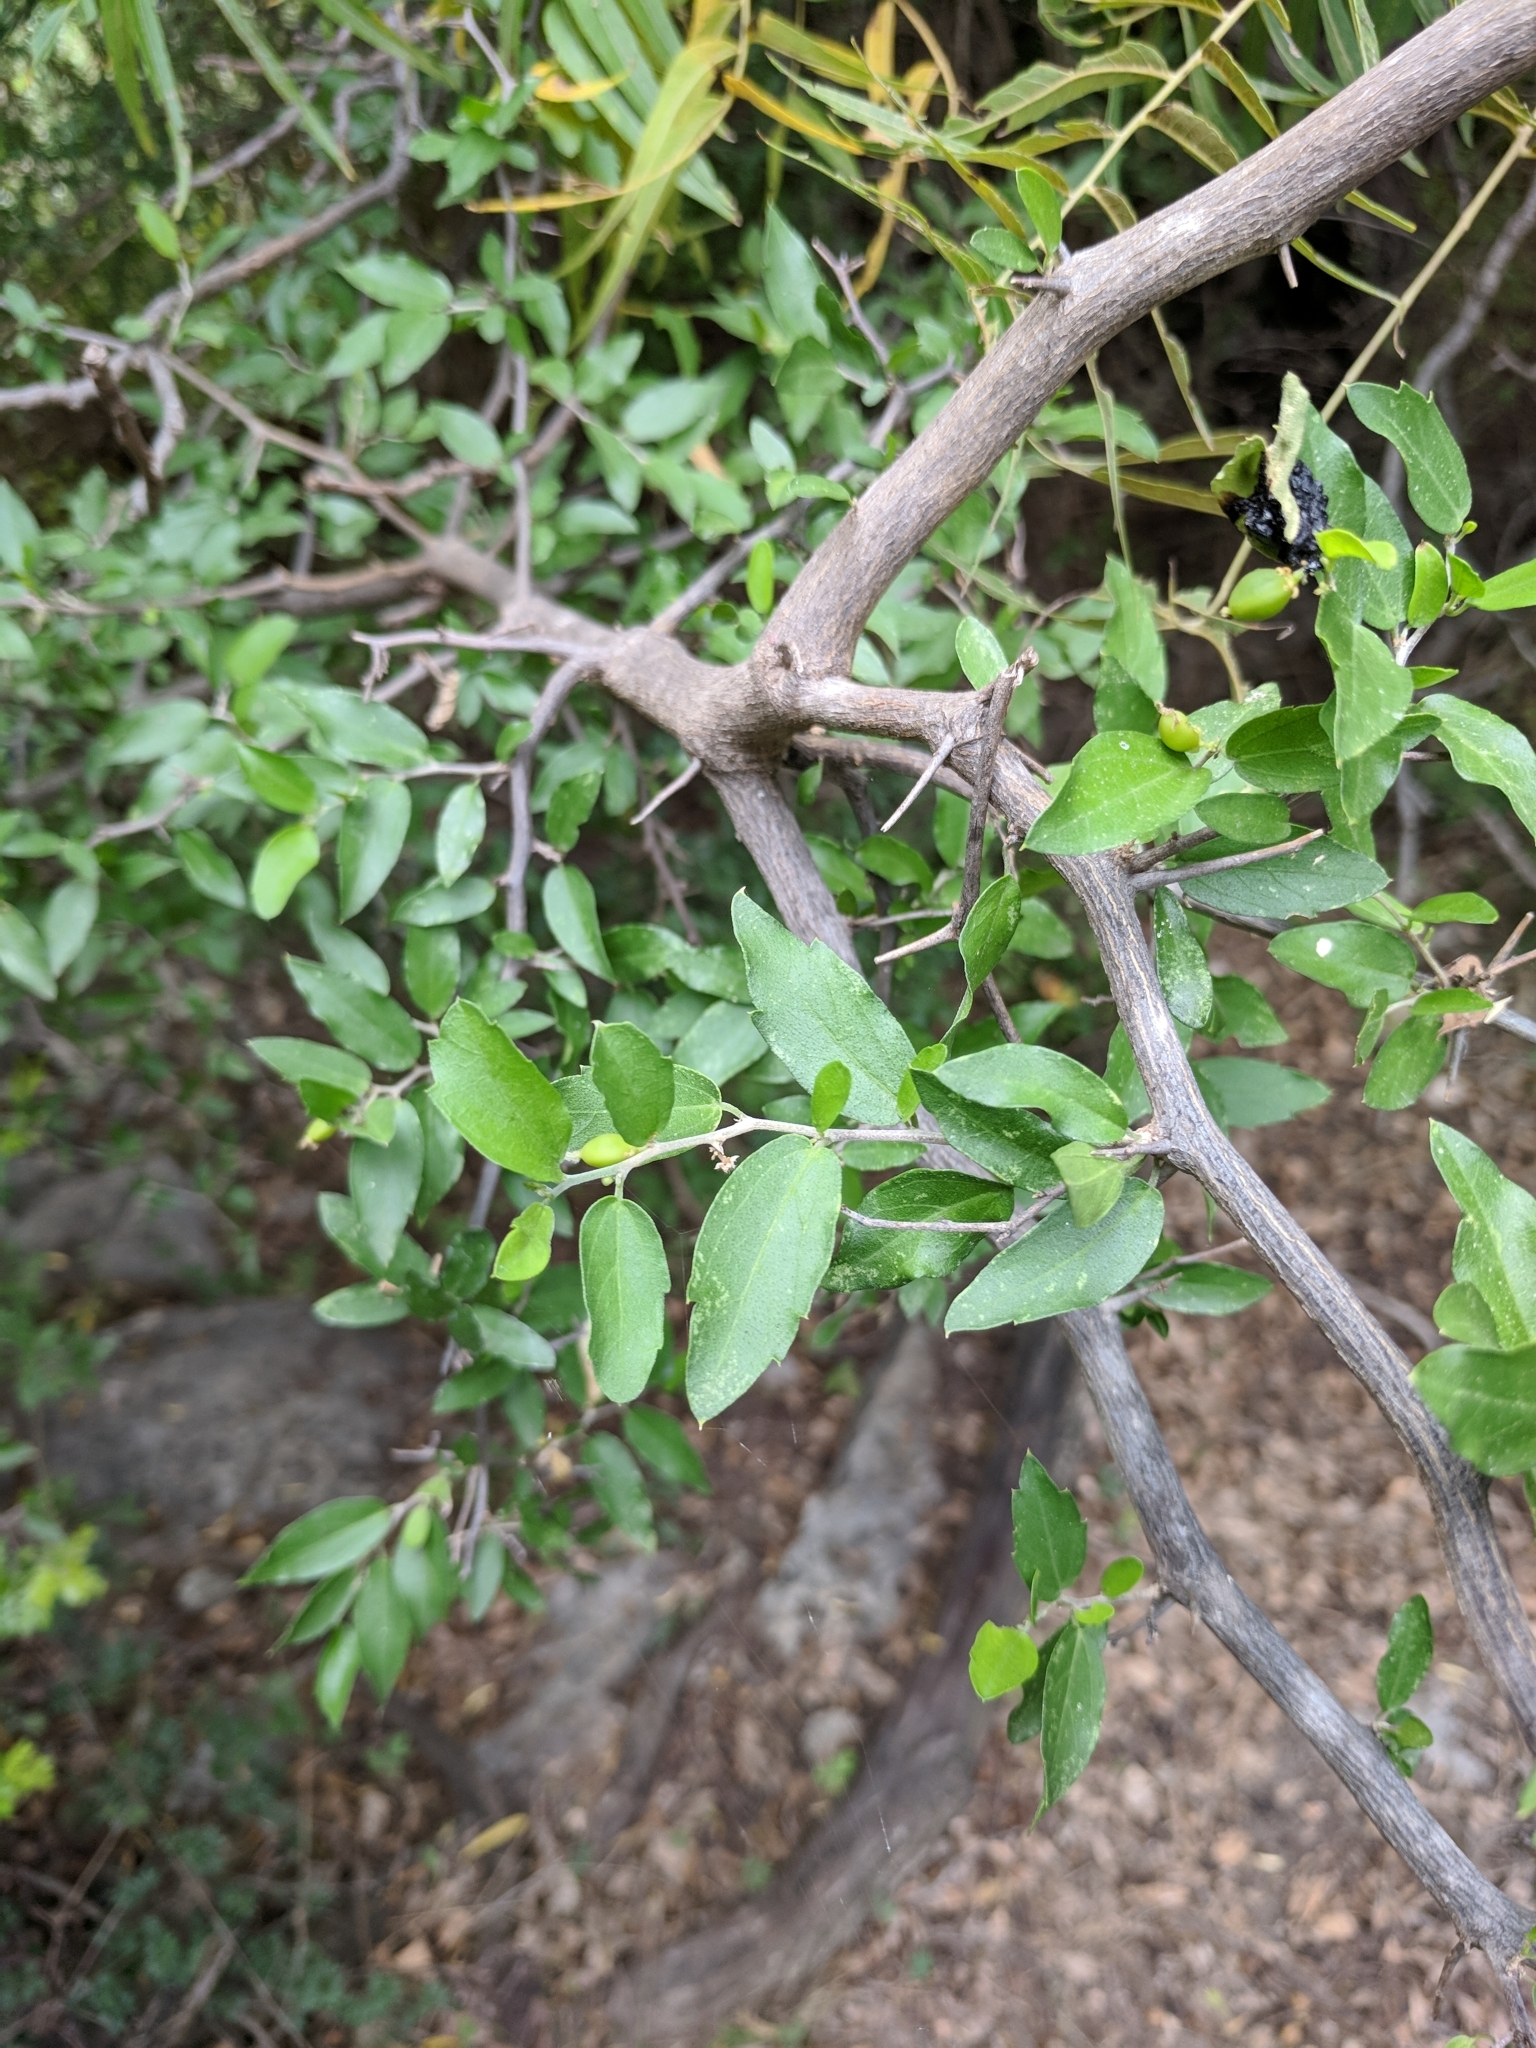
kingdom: Plantae
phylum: Tracheophyta
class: Magnoliopsida
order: Rosales
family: Cannabaceae
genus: Celtis
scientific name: Celtis pallida
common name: Desert hackberry
